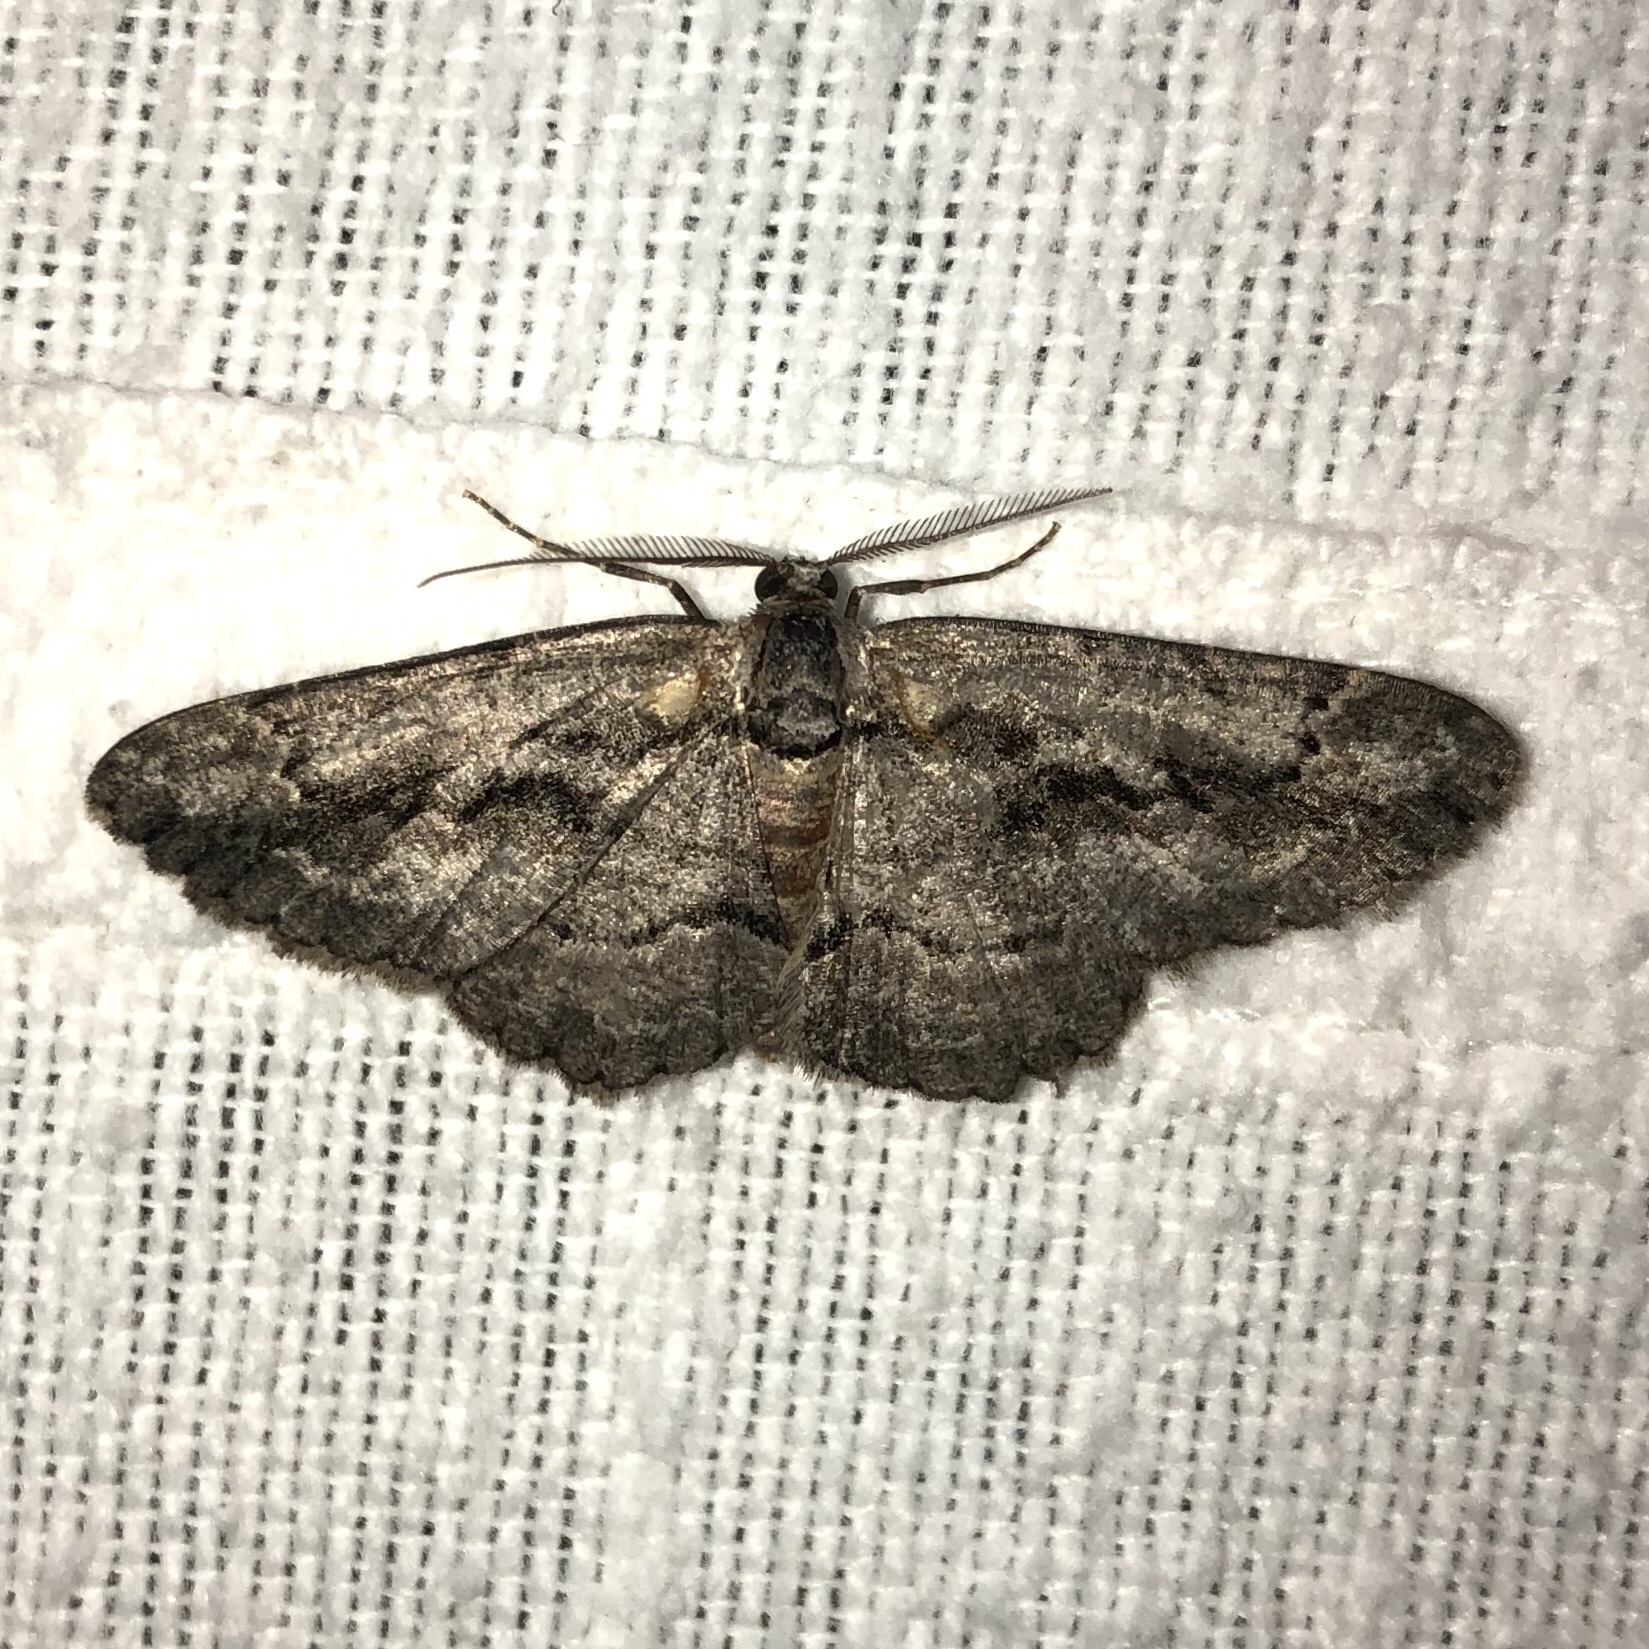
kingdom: Animalia
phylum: Arthropoda
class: Insecta
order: Lepidoptera
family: Geometridae
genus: Anavitrinella
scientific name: Anavitrinella pampinaria
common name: Common gray
